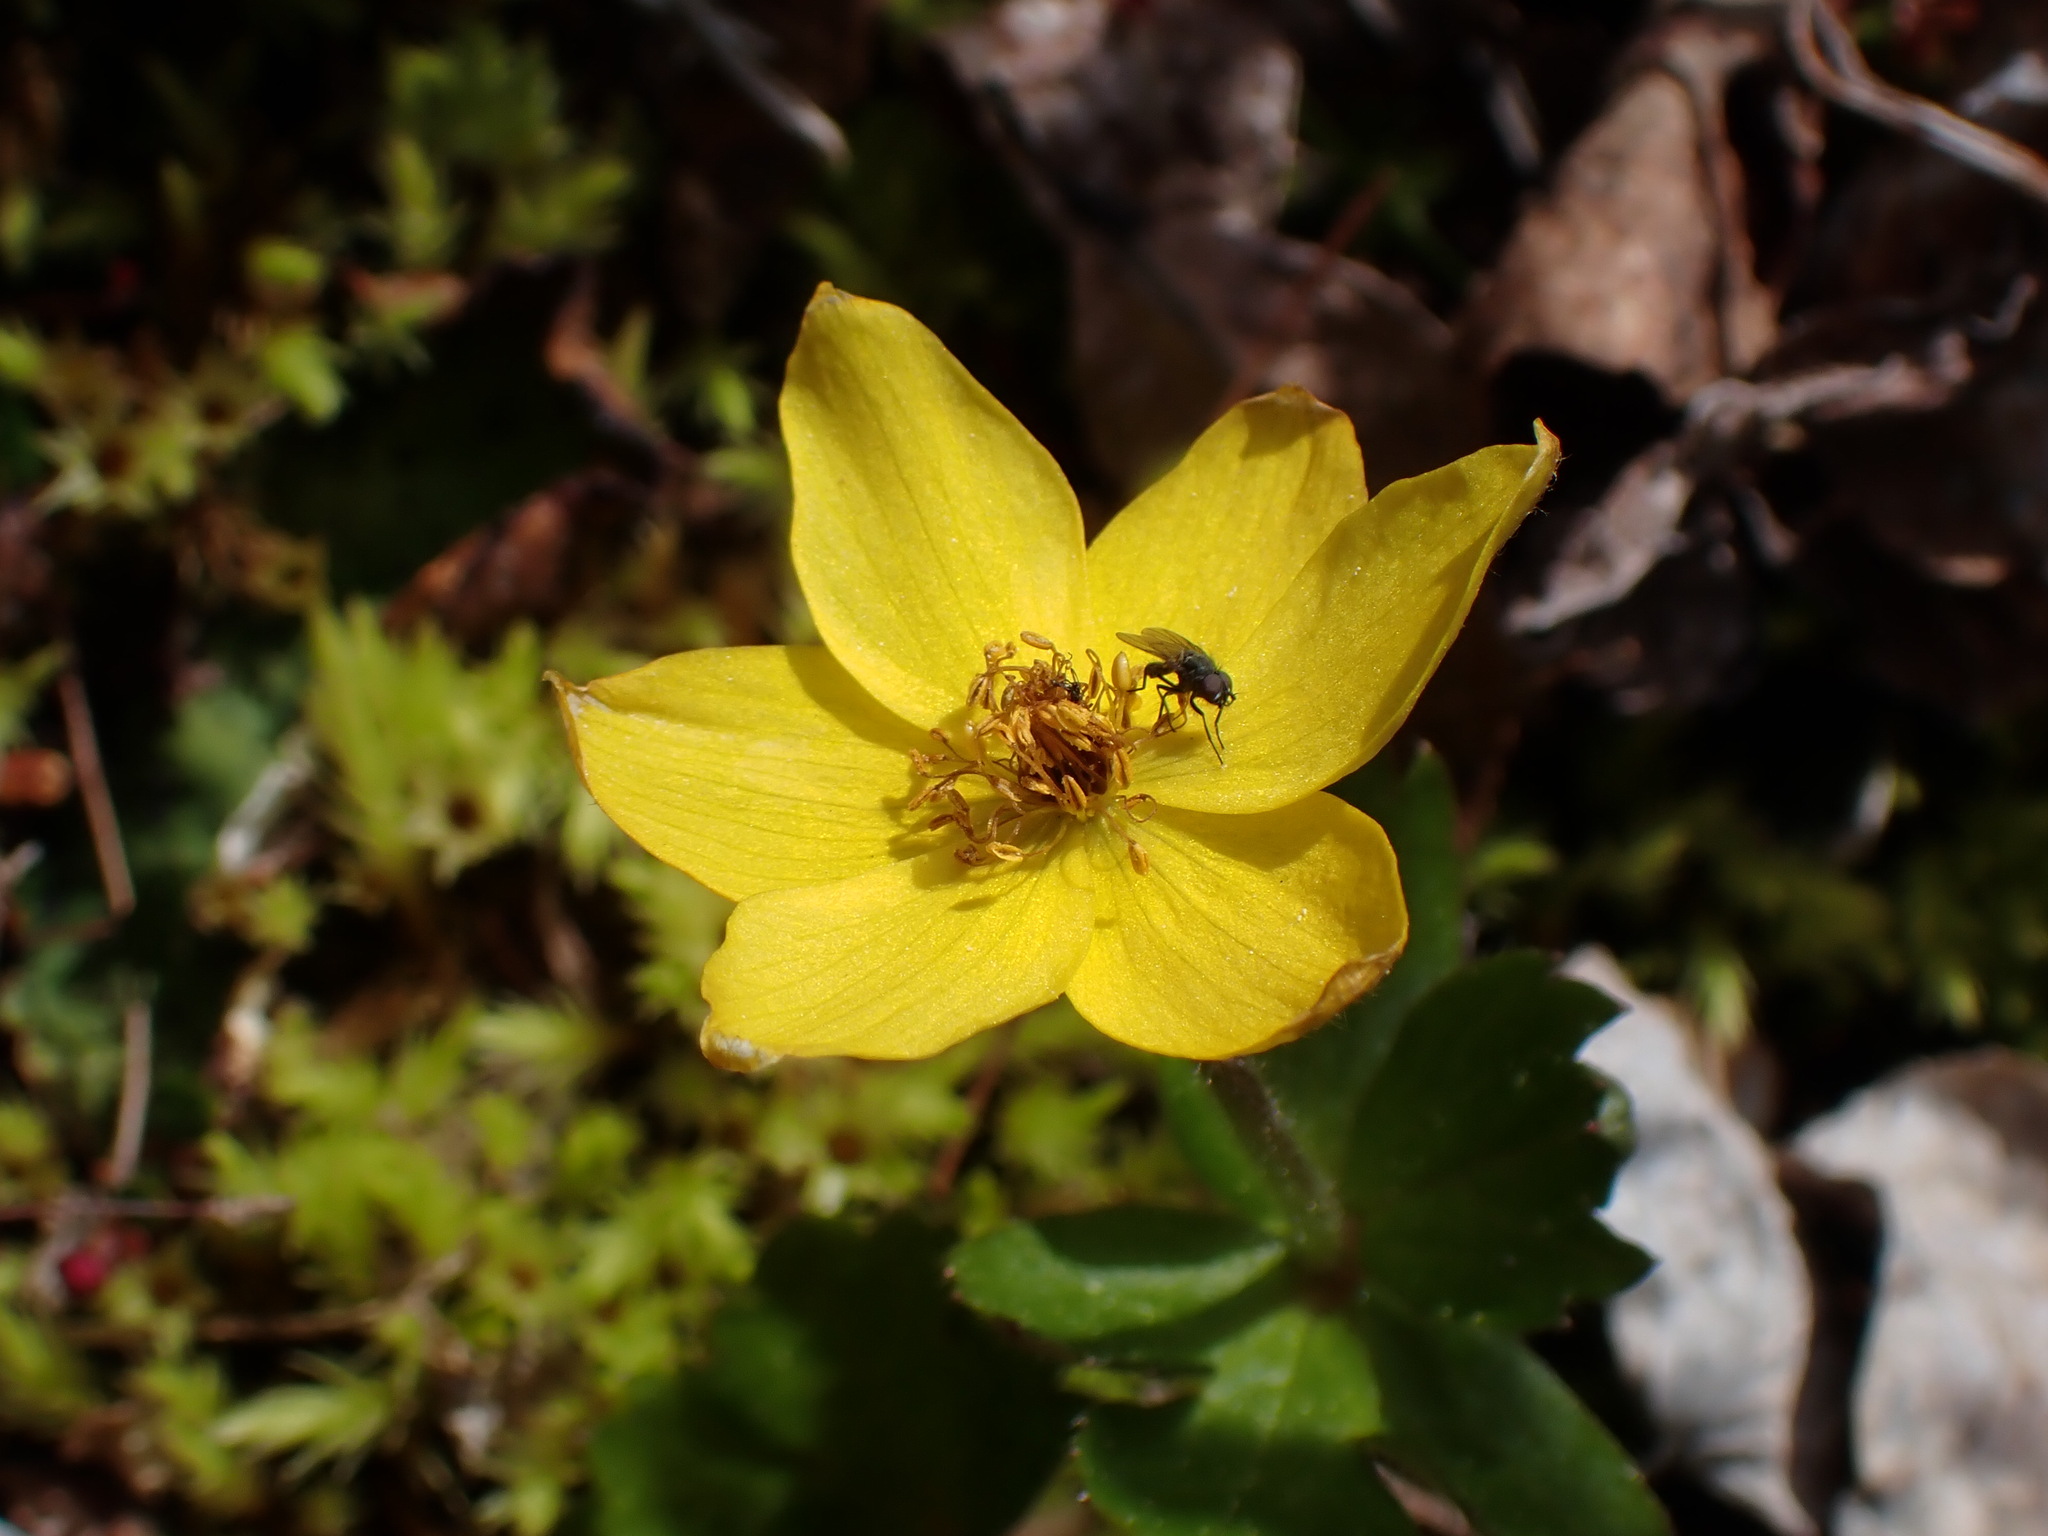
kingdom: Plantae
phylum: Tracheophyta
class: Magnoliopsida
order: Ranunculales
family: Ranunculaceae
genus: Anemonastrum
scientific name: Anemonastrum richardsonii
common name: Richardson's anemone
